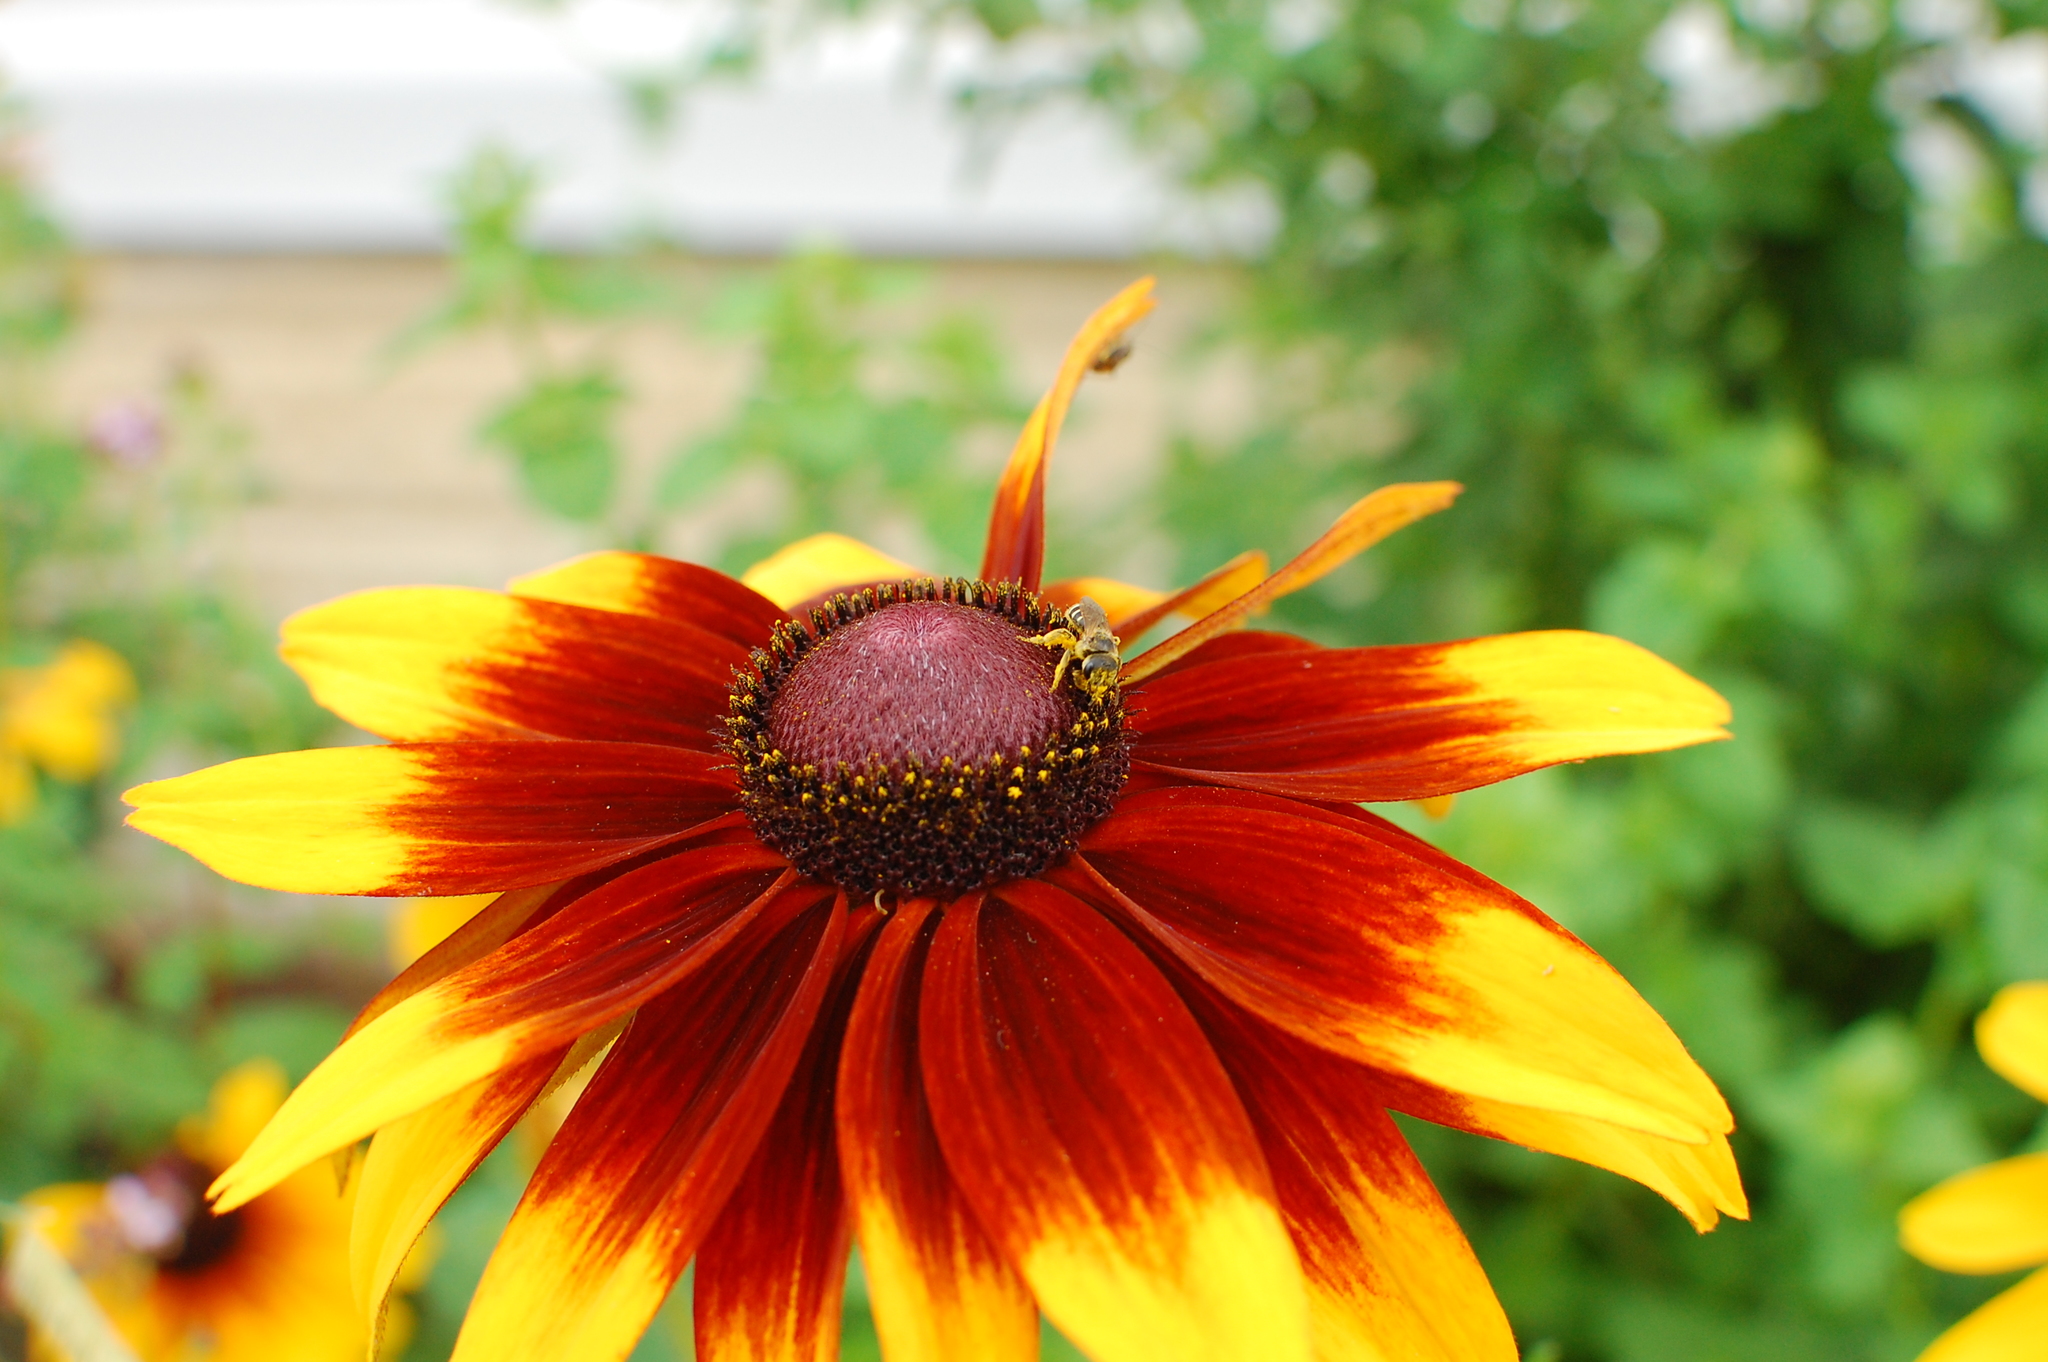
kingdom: Animalia
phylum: Arthropoda
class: Insecta
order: Hymenoptera
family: Halictidae
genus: Halictus
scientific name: Halictus ligatus
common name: Ligated furrow bee
